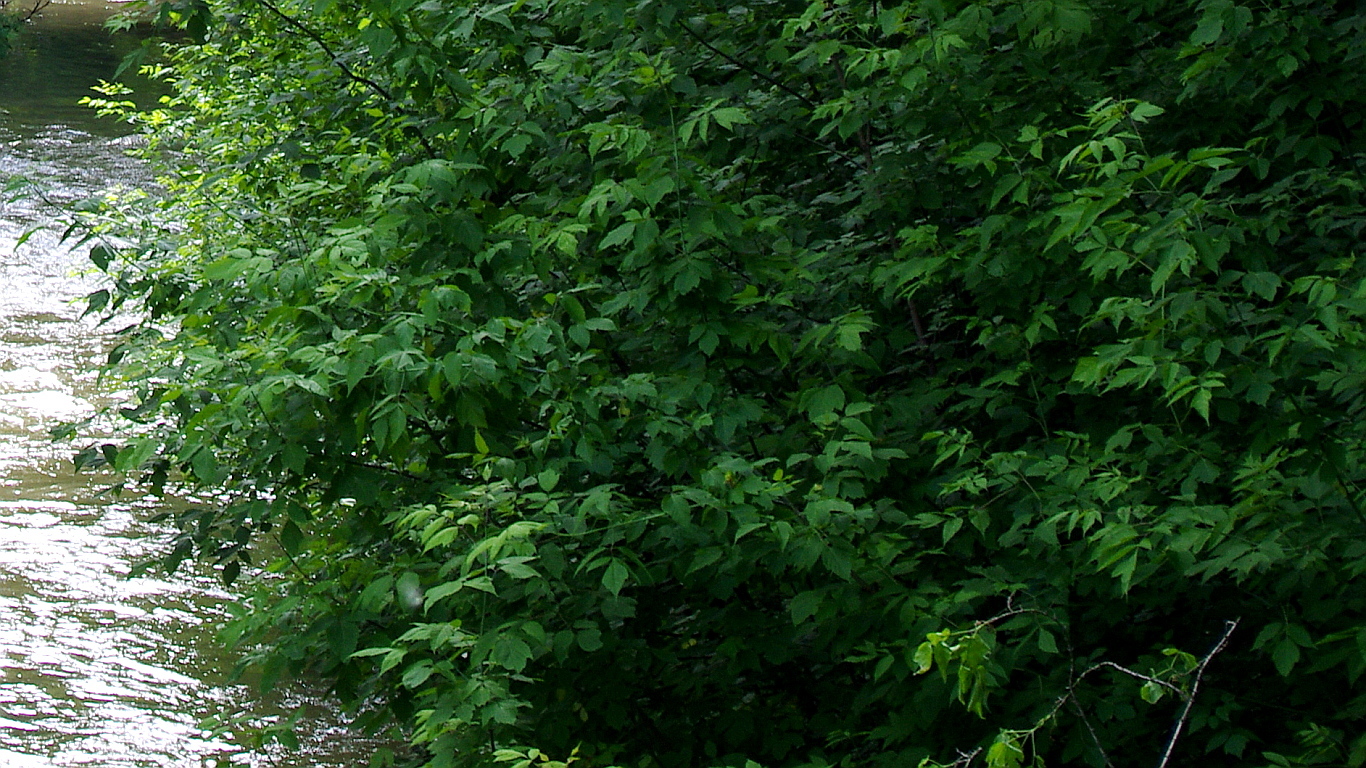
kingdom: Plantae
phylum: Tracheophyta
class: Magnoliopsida
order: Sapindales
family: Sapindaceae
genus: Acer
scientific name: Acer negundo
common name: Ashleaf maple
